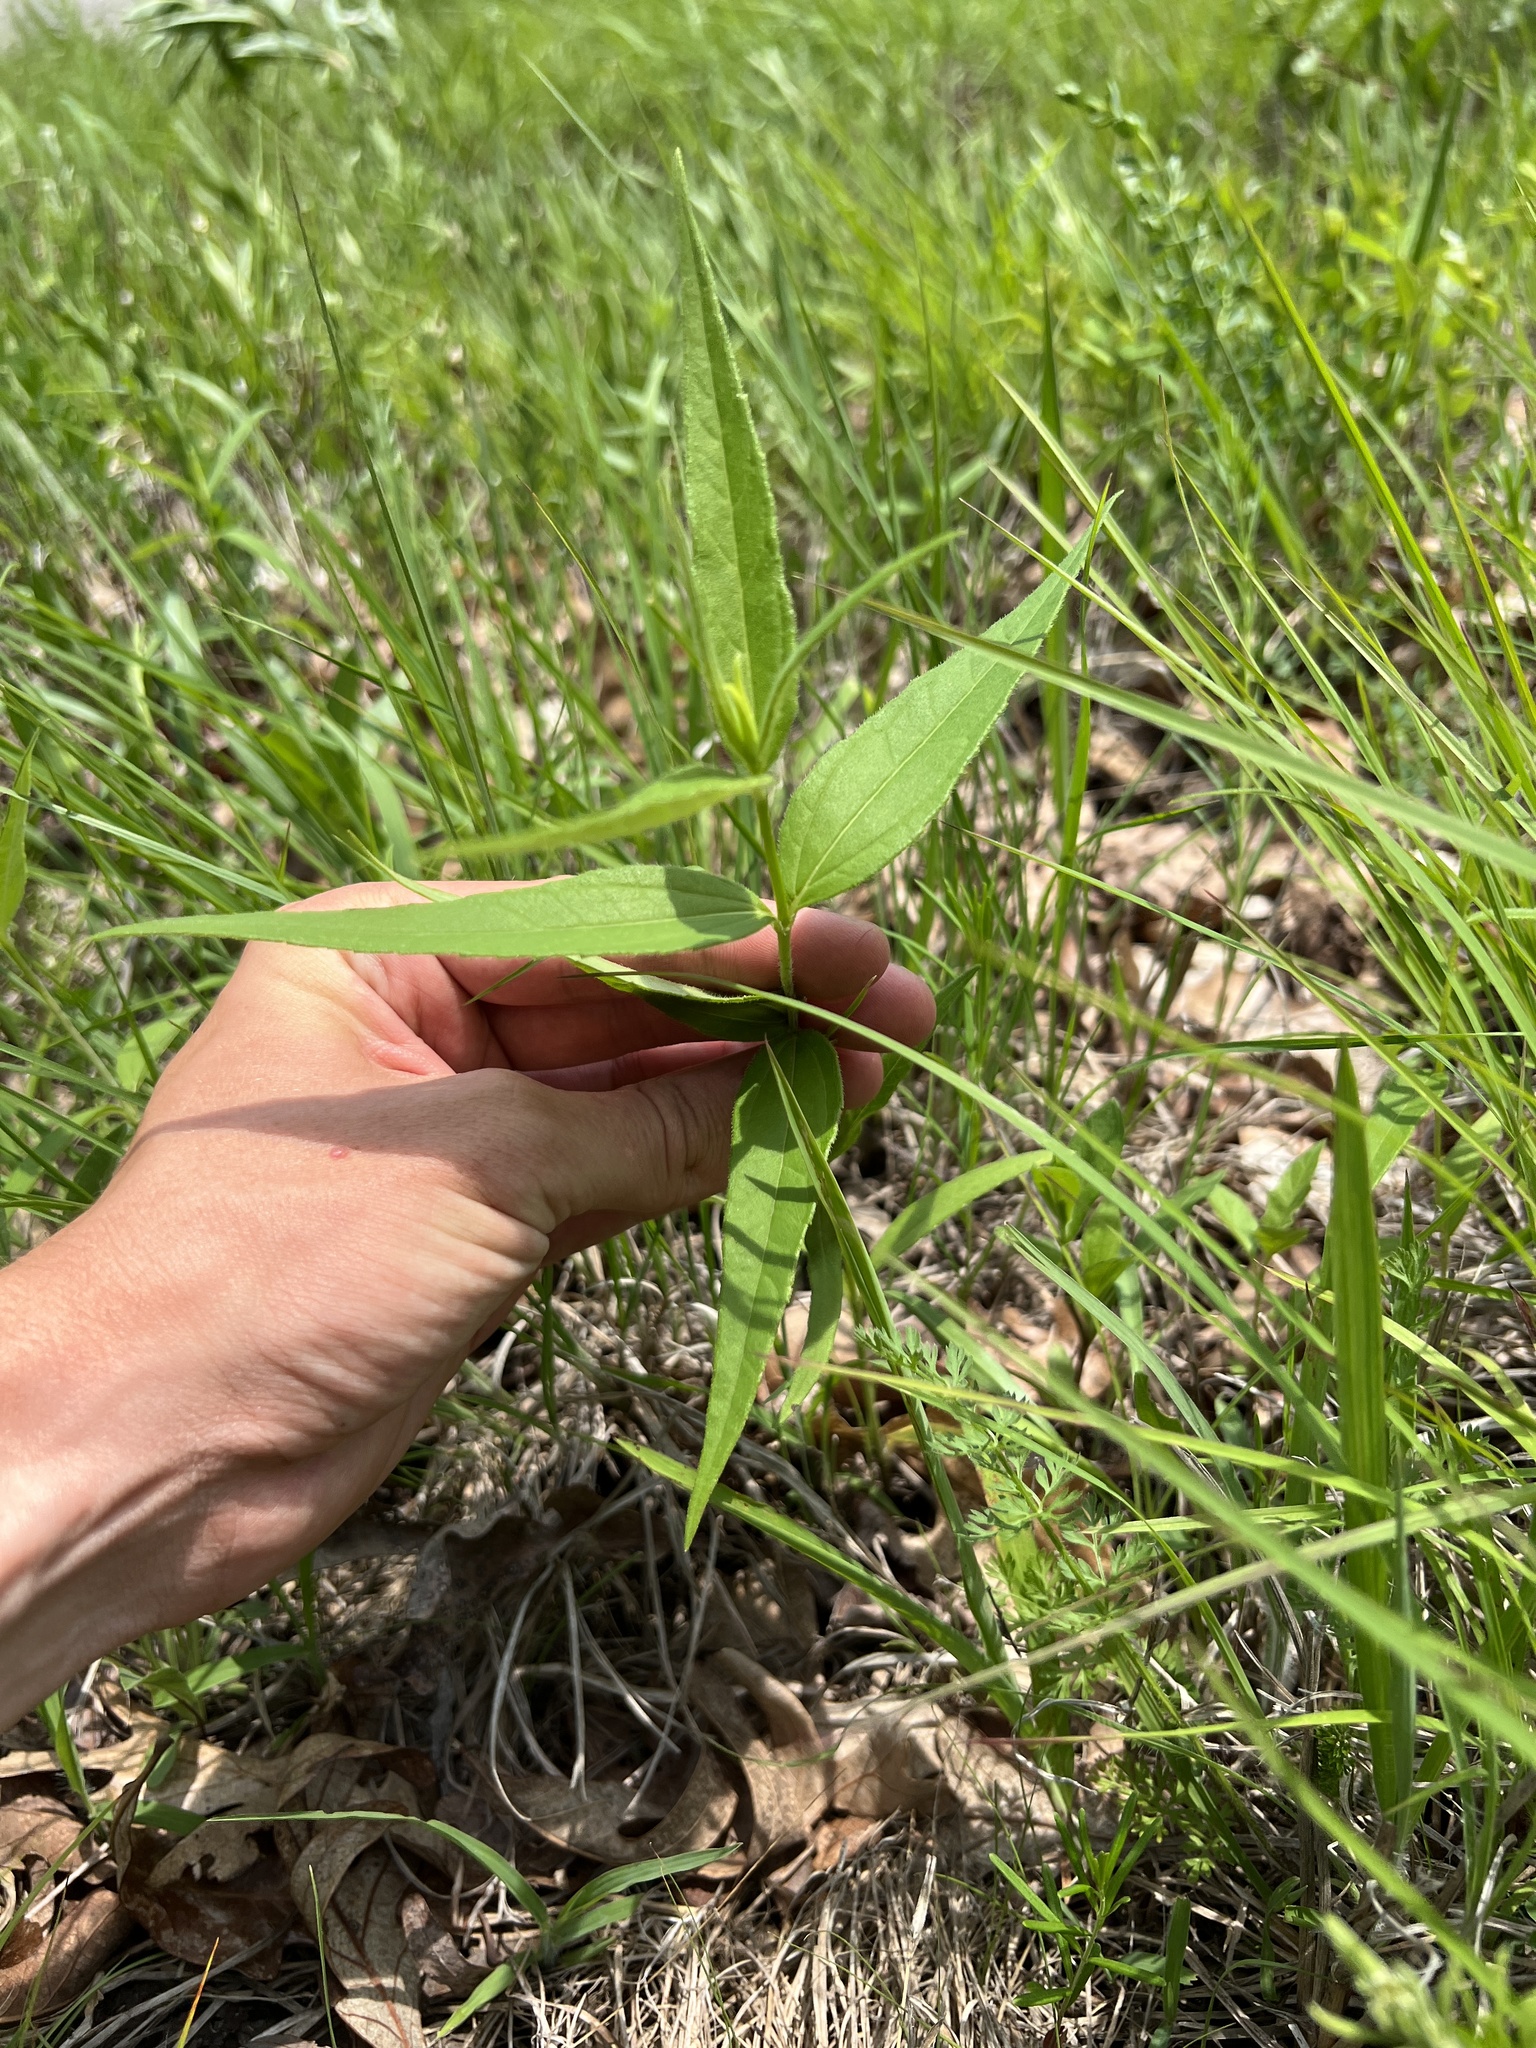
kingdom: Plantae
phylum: Tracheophyta
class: Magnoliopsida
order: Asterales
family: Asteraceae
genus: Helianthus
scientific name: Helianthus hirsutus
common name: Hairy sunflower
